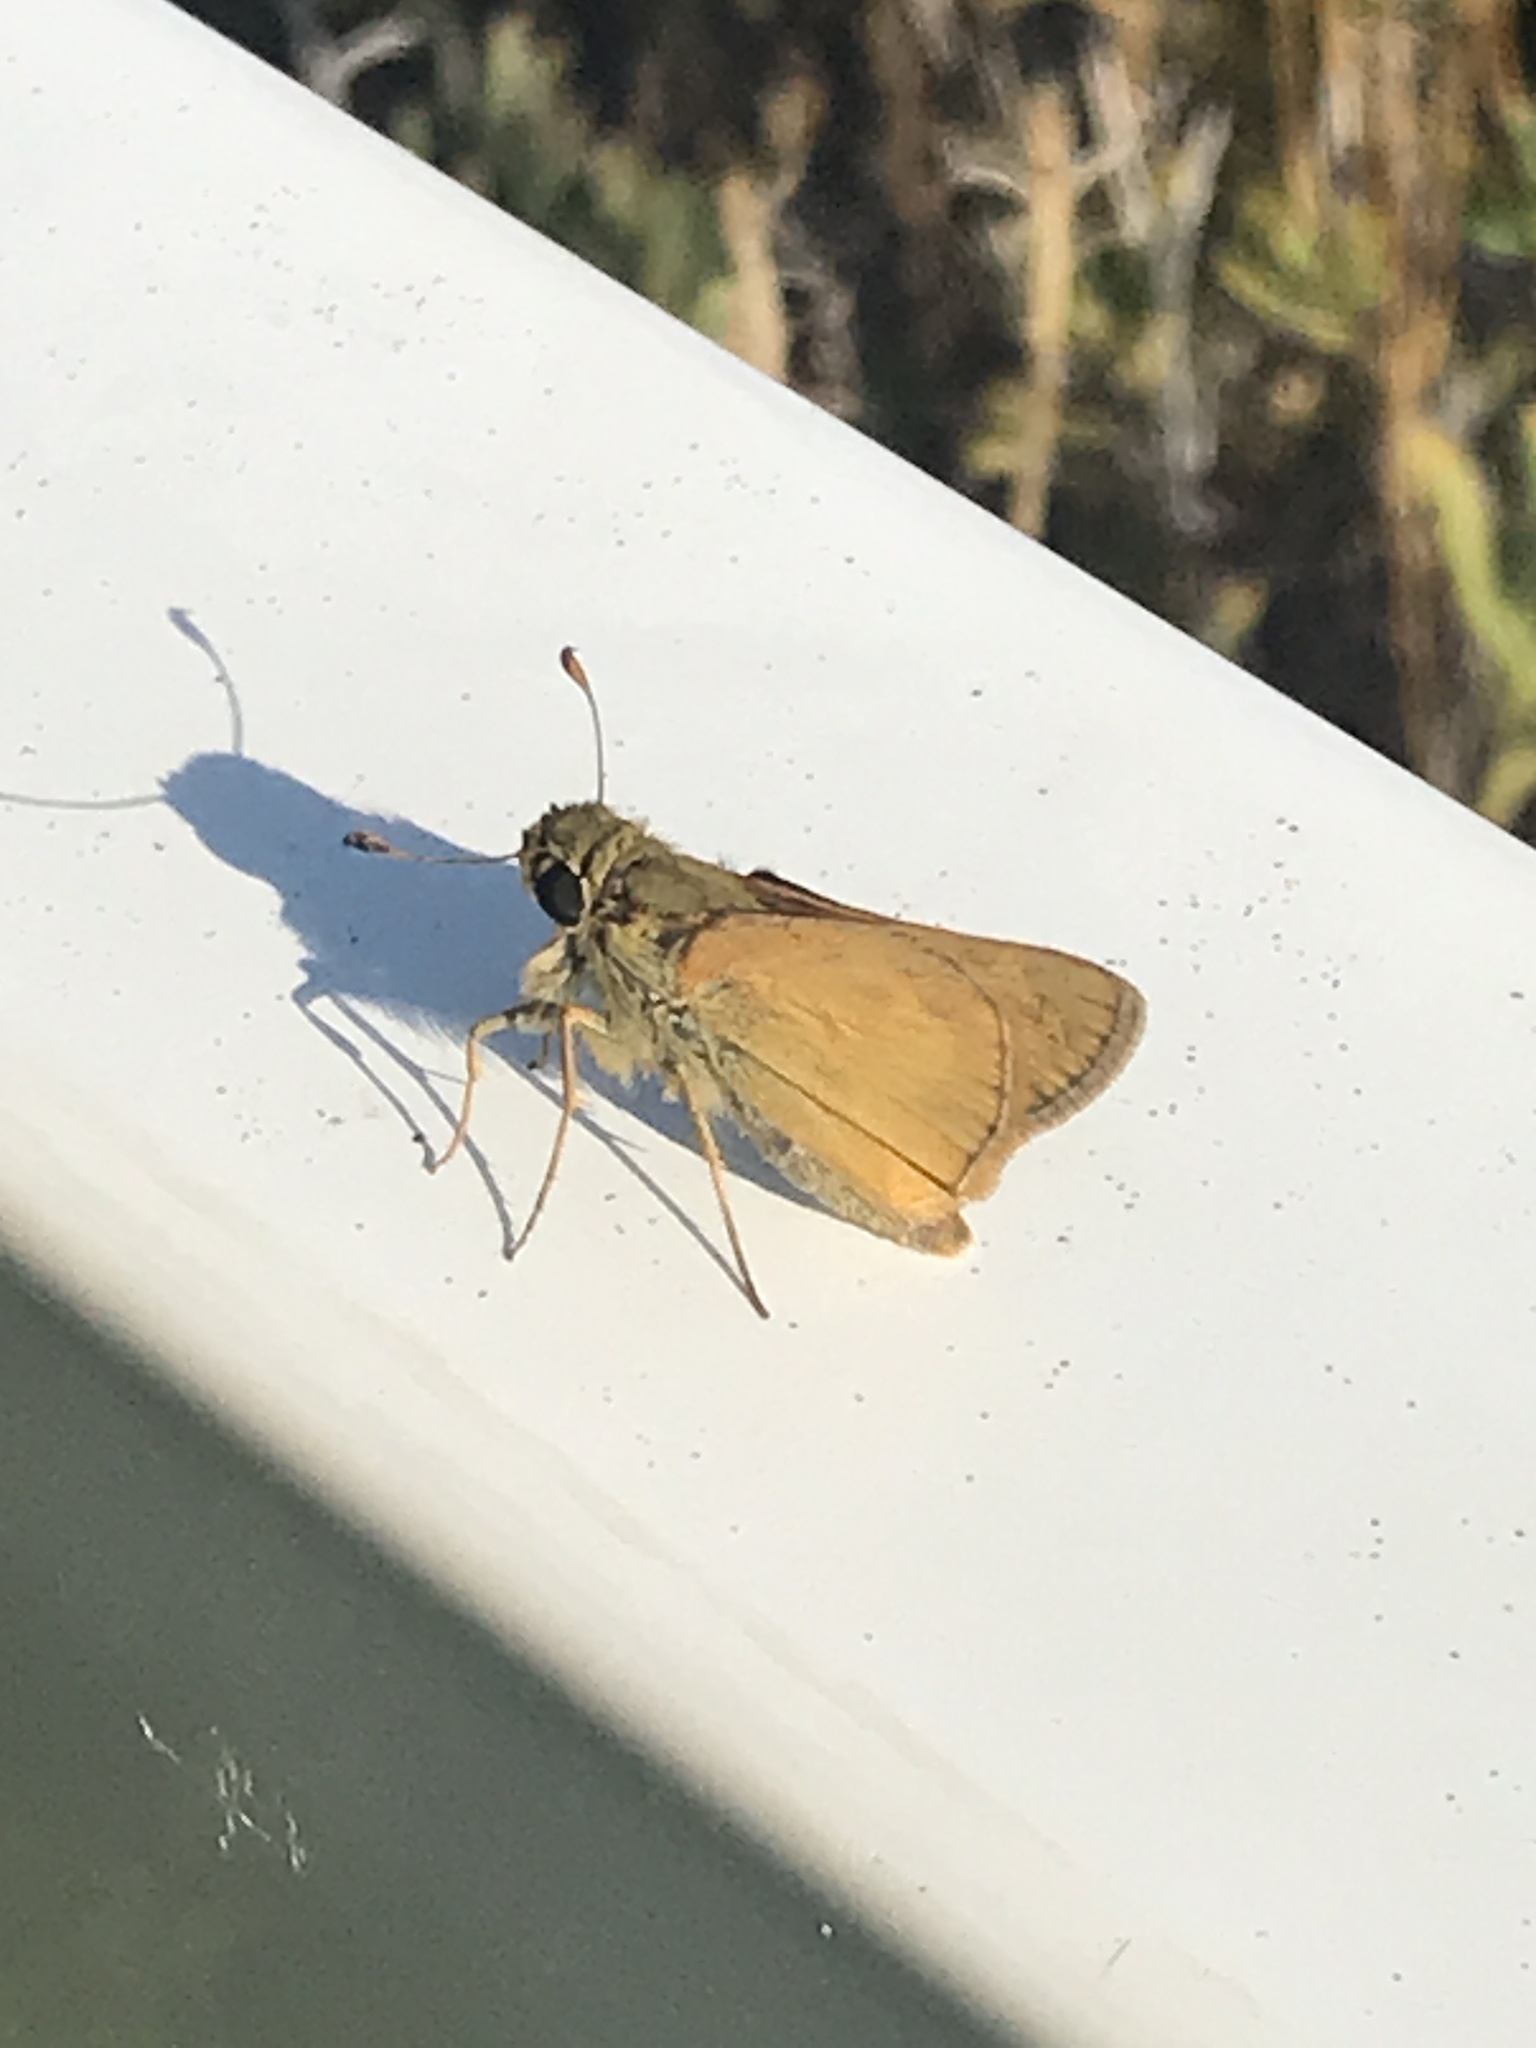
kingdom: Animalia
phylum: Arthropoda
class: Insecta
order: Lepidoptera
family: Hesperiidae
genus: Atalopedes
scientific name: Atalopedes
